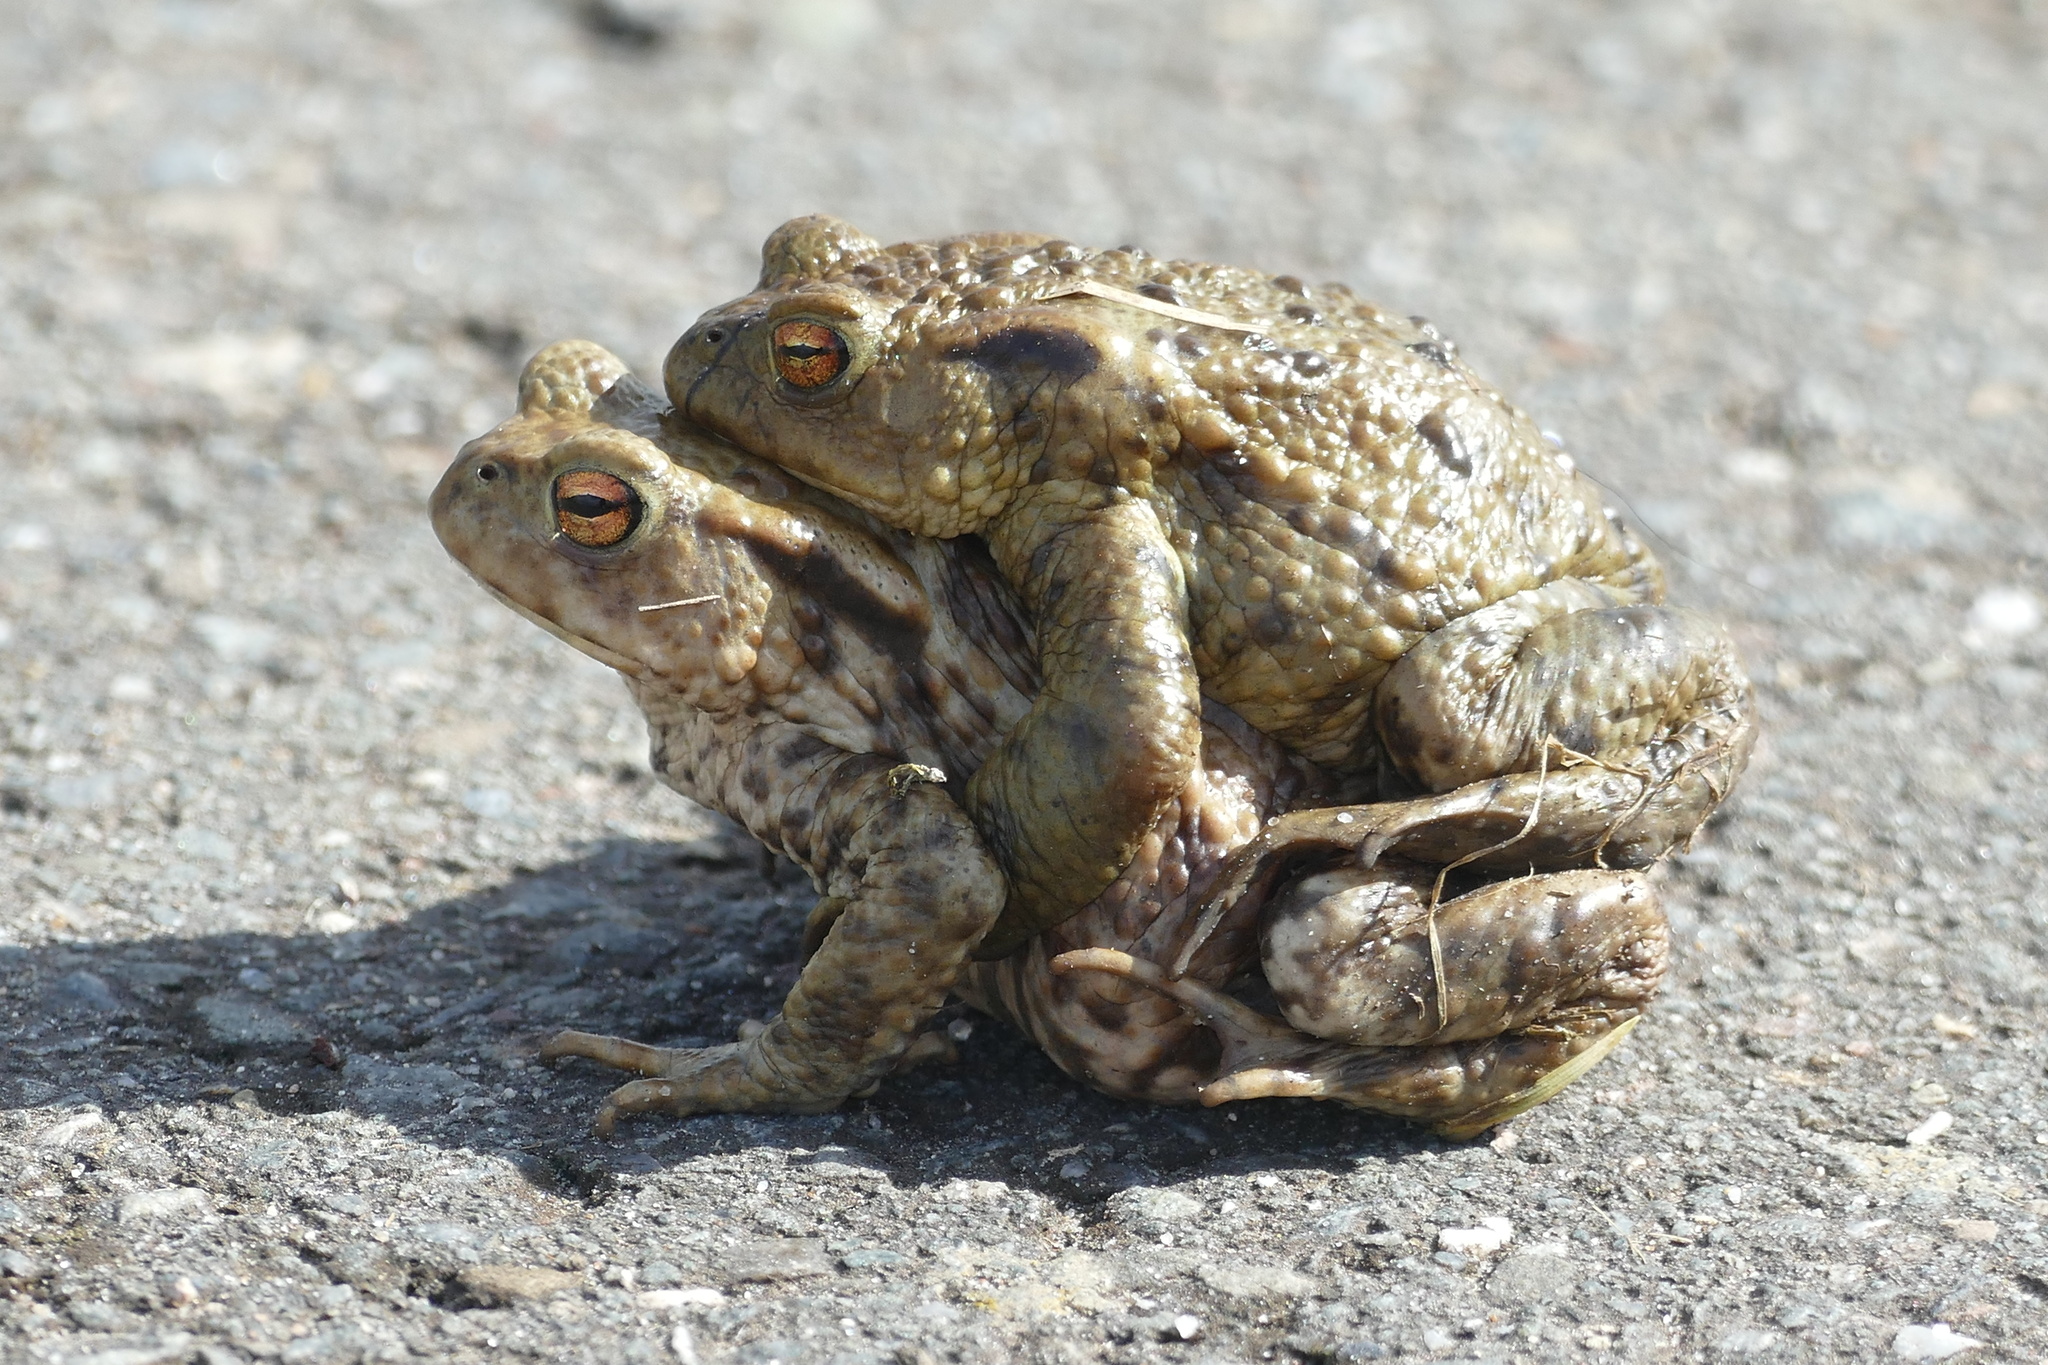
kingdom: Animalia
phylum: Chordata
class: Amphibia
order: Anura
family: Bufonidae
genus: Bufo
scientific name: Bufo bufo
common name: Common toad
